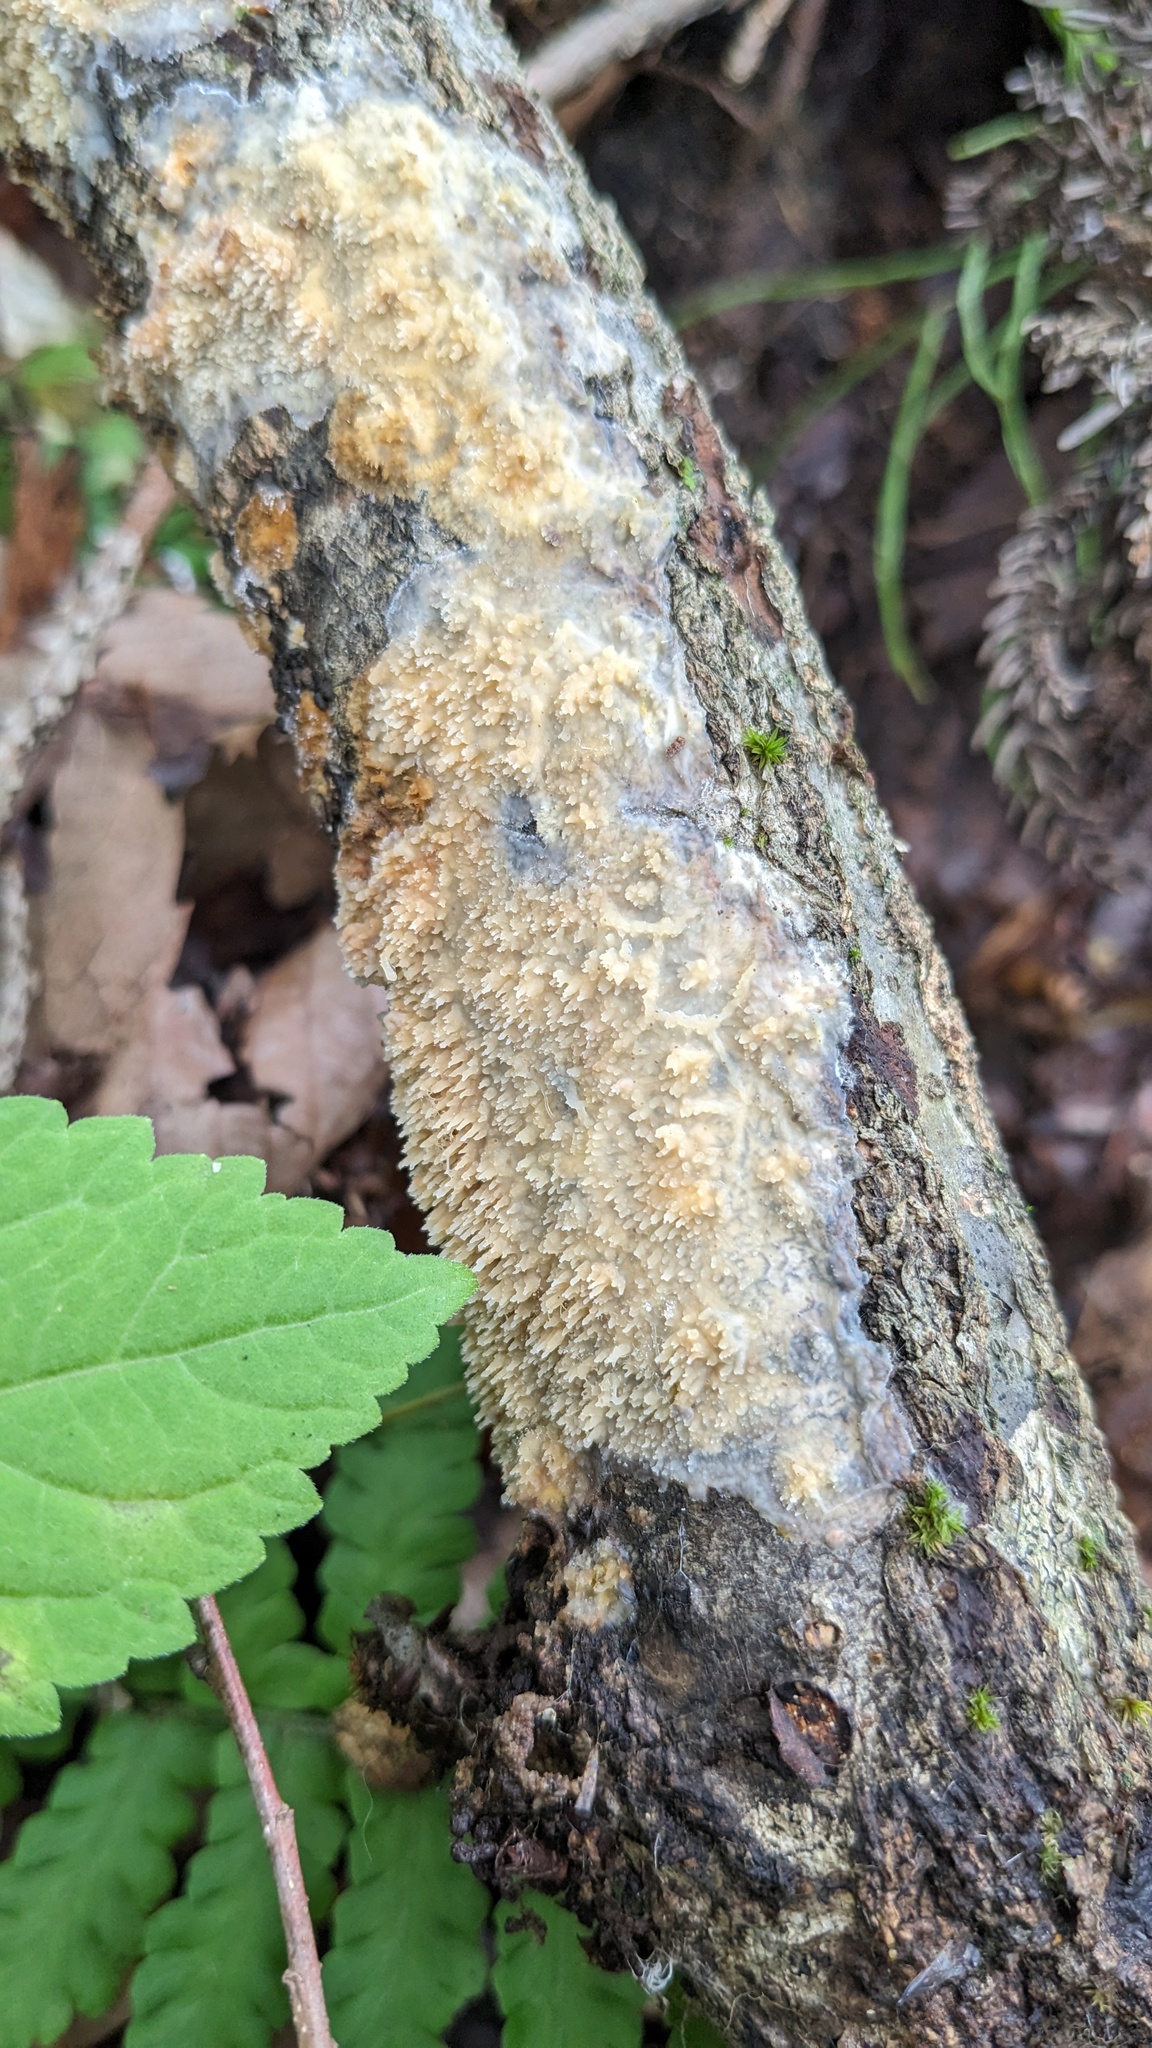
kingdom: Fungi
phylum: Basidiomycota
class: Agaricomycetes
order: Hymenochaetales
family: Schizoporaceae
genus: Xylodon
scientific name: Xylodon radula
